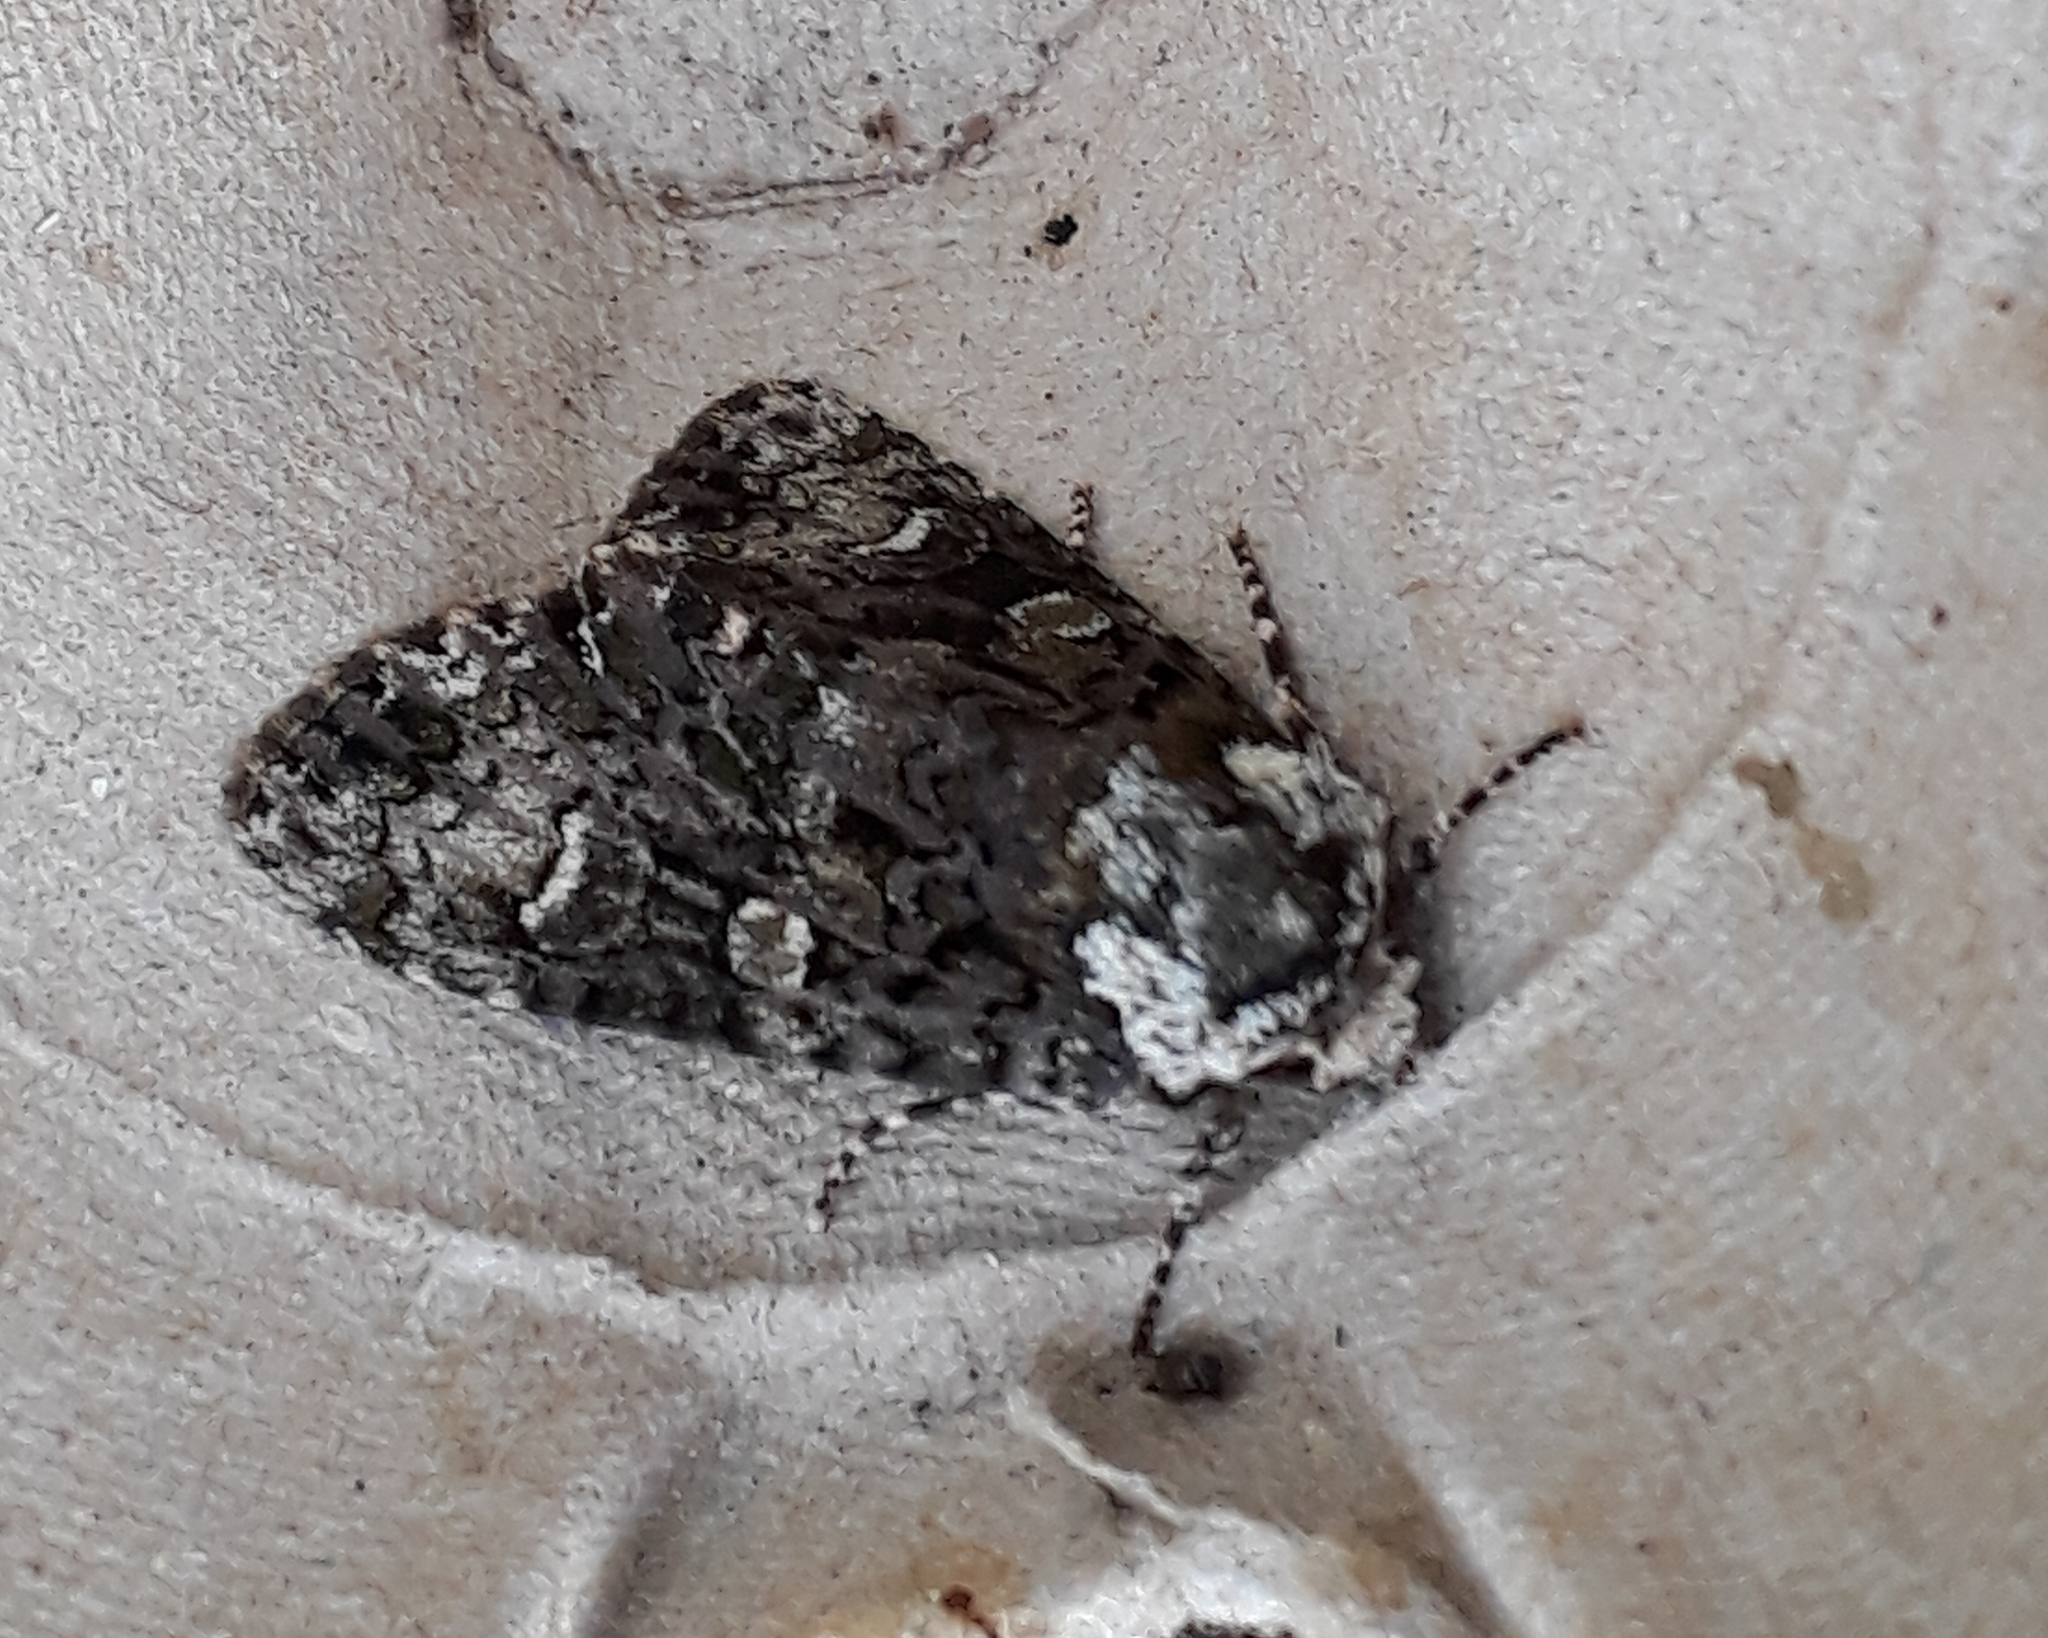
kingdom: Animalia
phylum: Arthropoda
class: Insecta
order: Lepidoptera
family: Noctuidae
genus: Craniophora
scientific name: Craniophora ligustri
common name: Coronet
